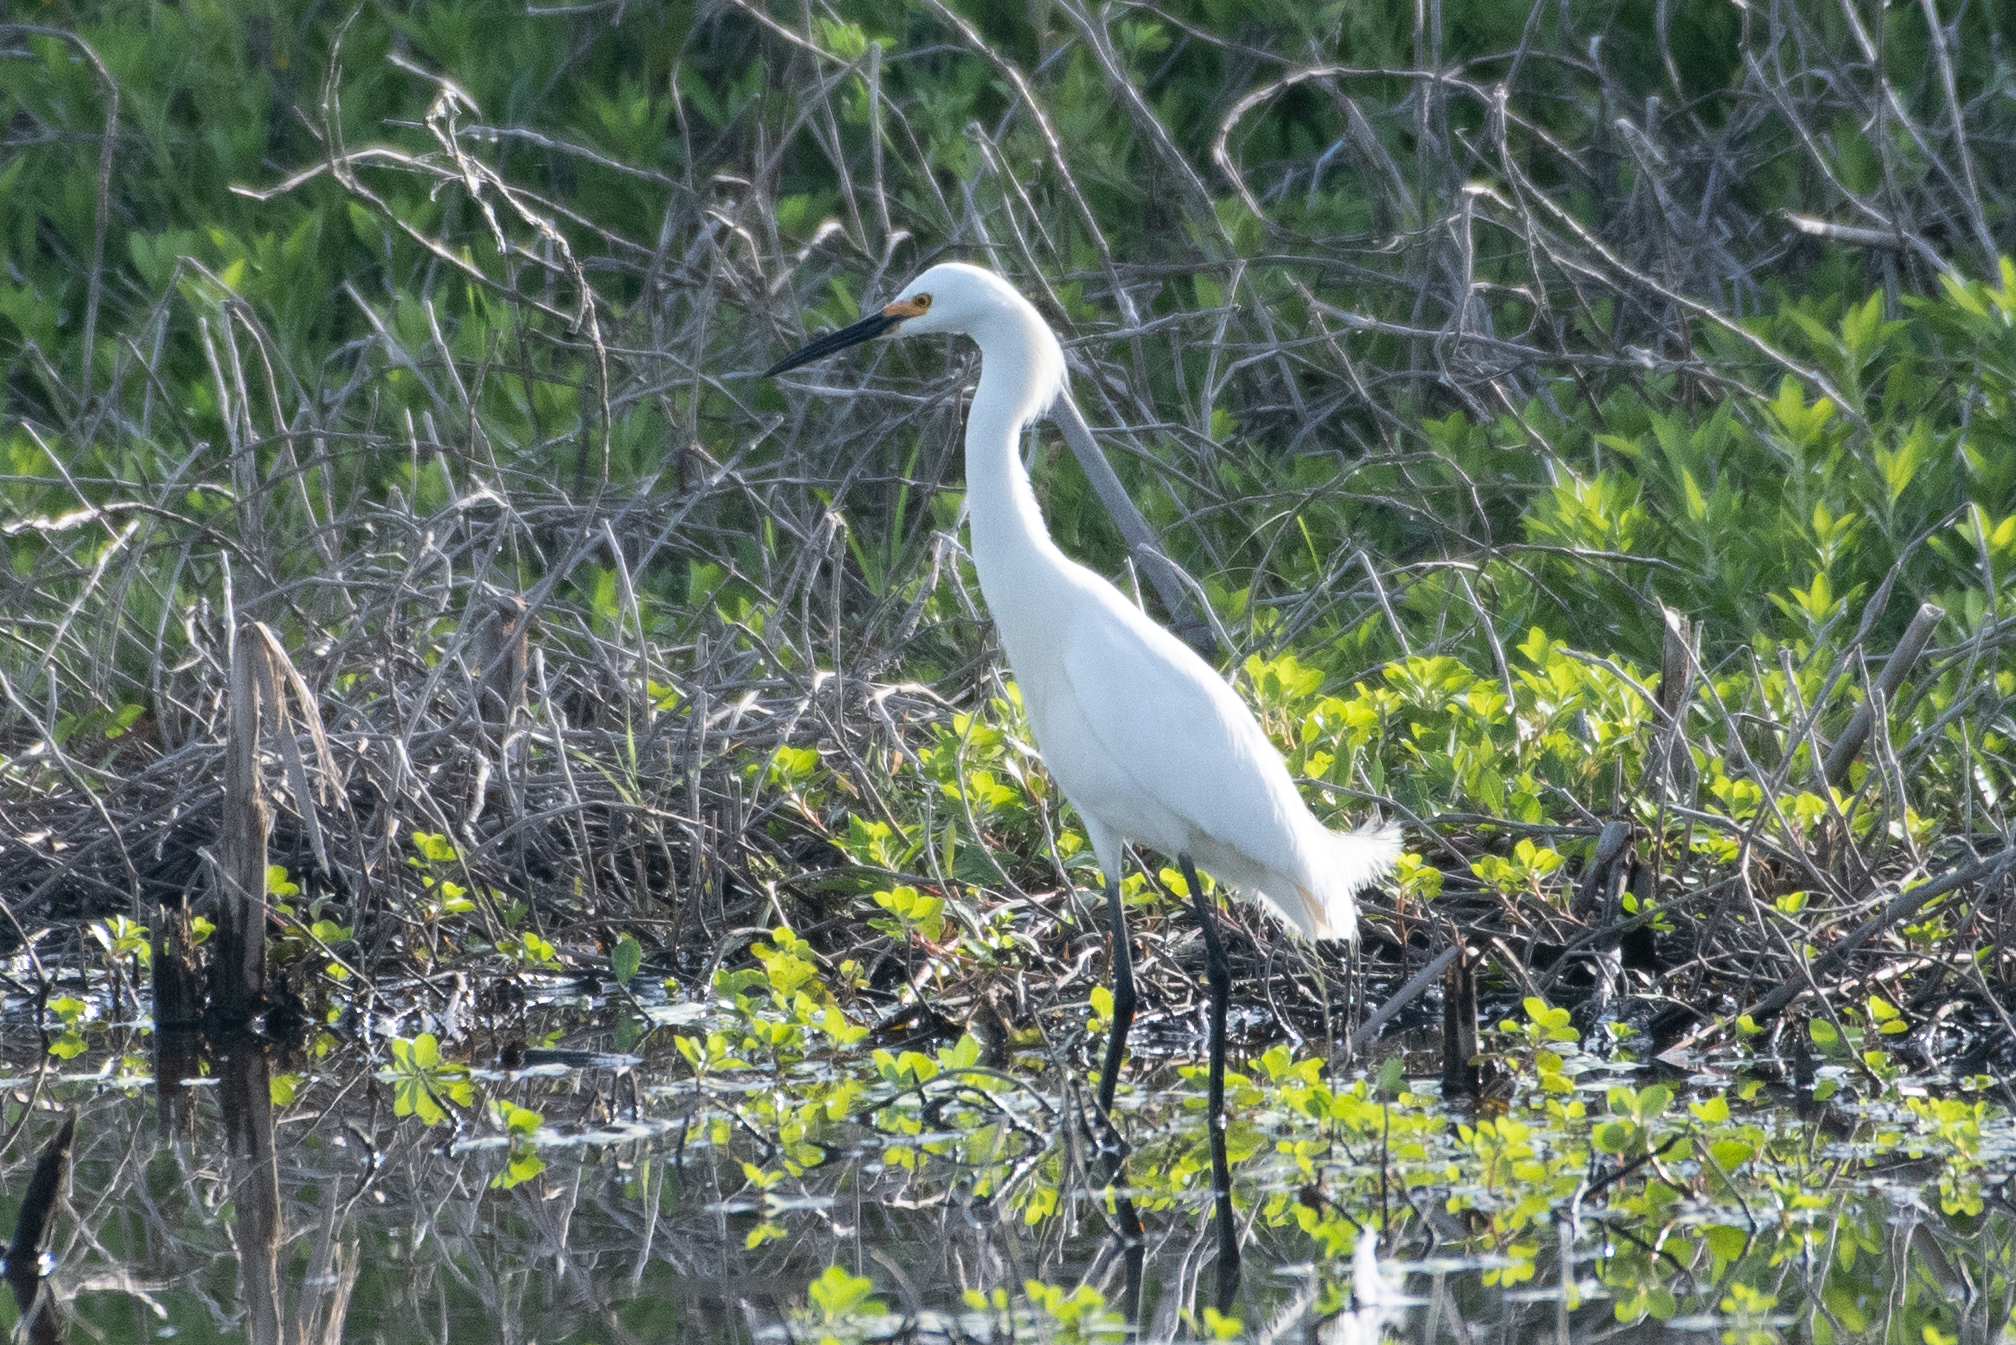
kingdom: Animalia
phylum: Chordata
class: Aves
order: Pelecaniformes
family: Ardeidae
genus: Egretta
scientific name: Egretta thula
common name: Snowy egret
